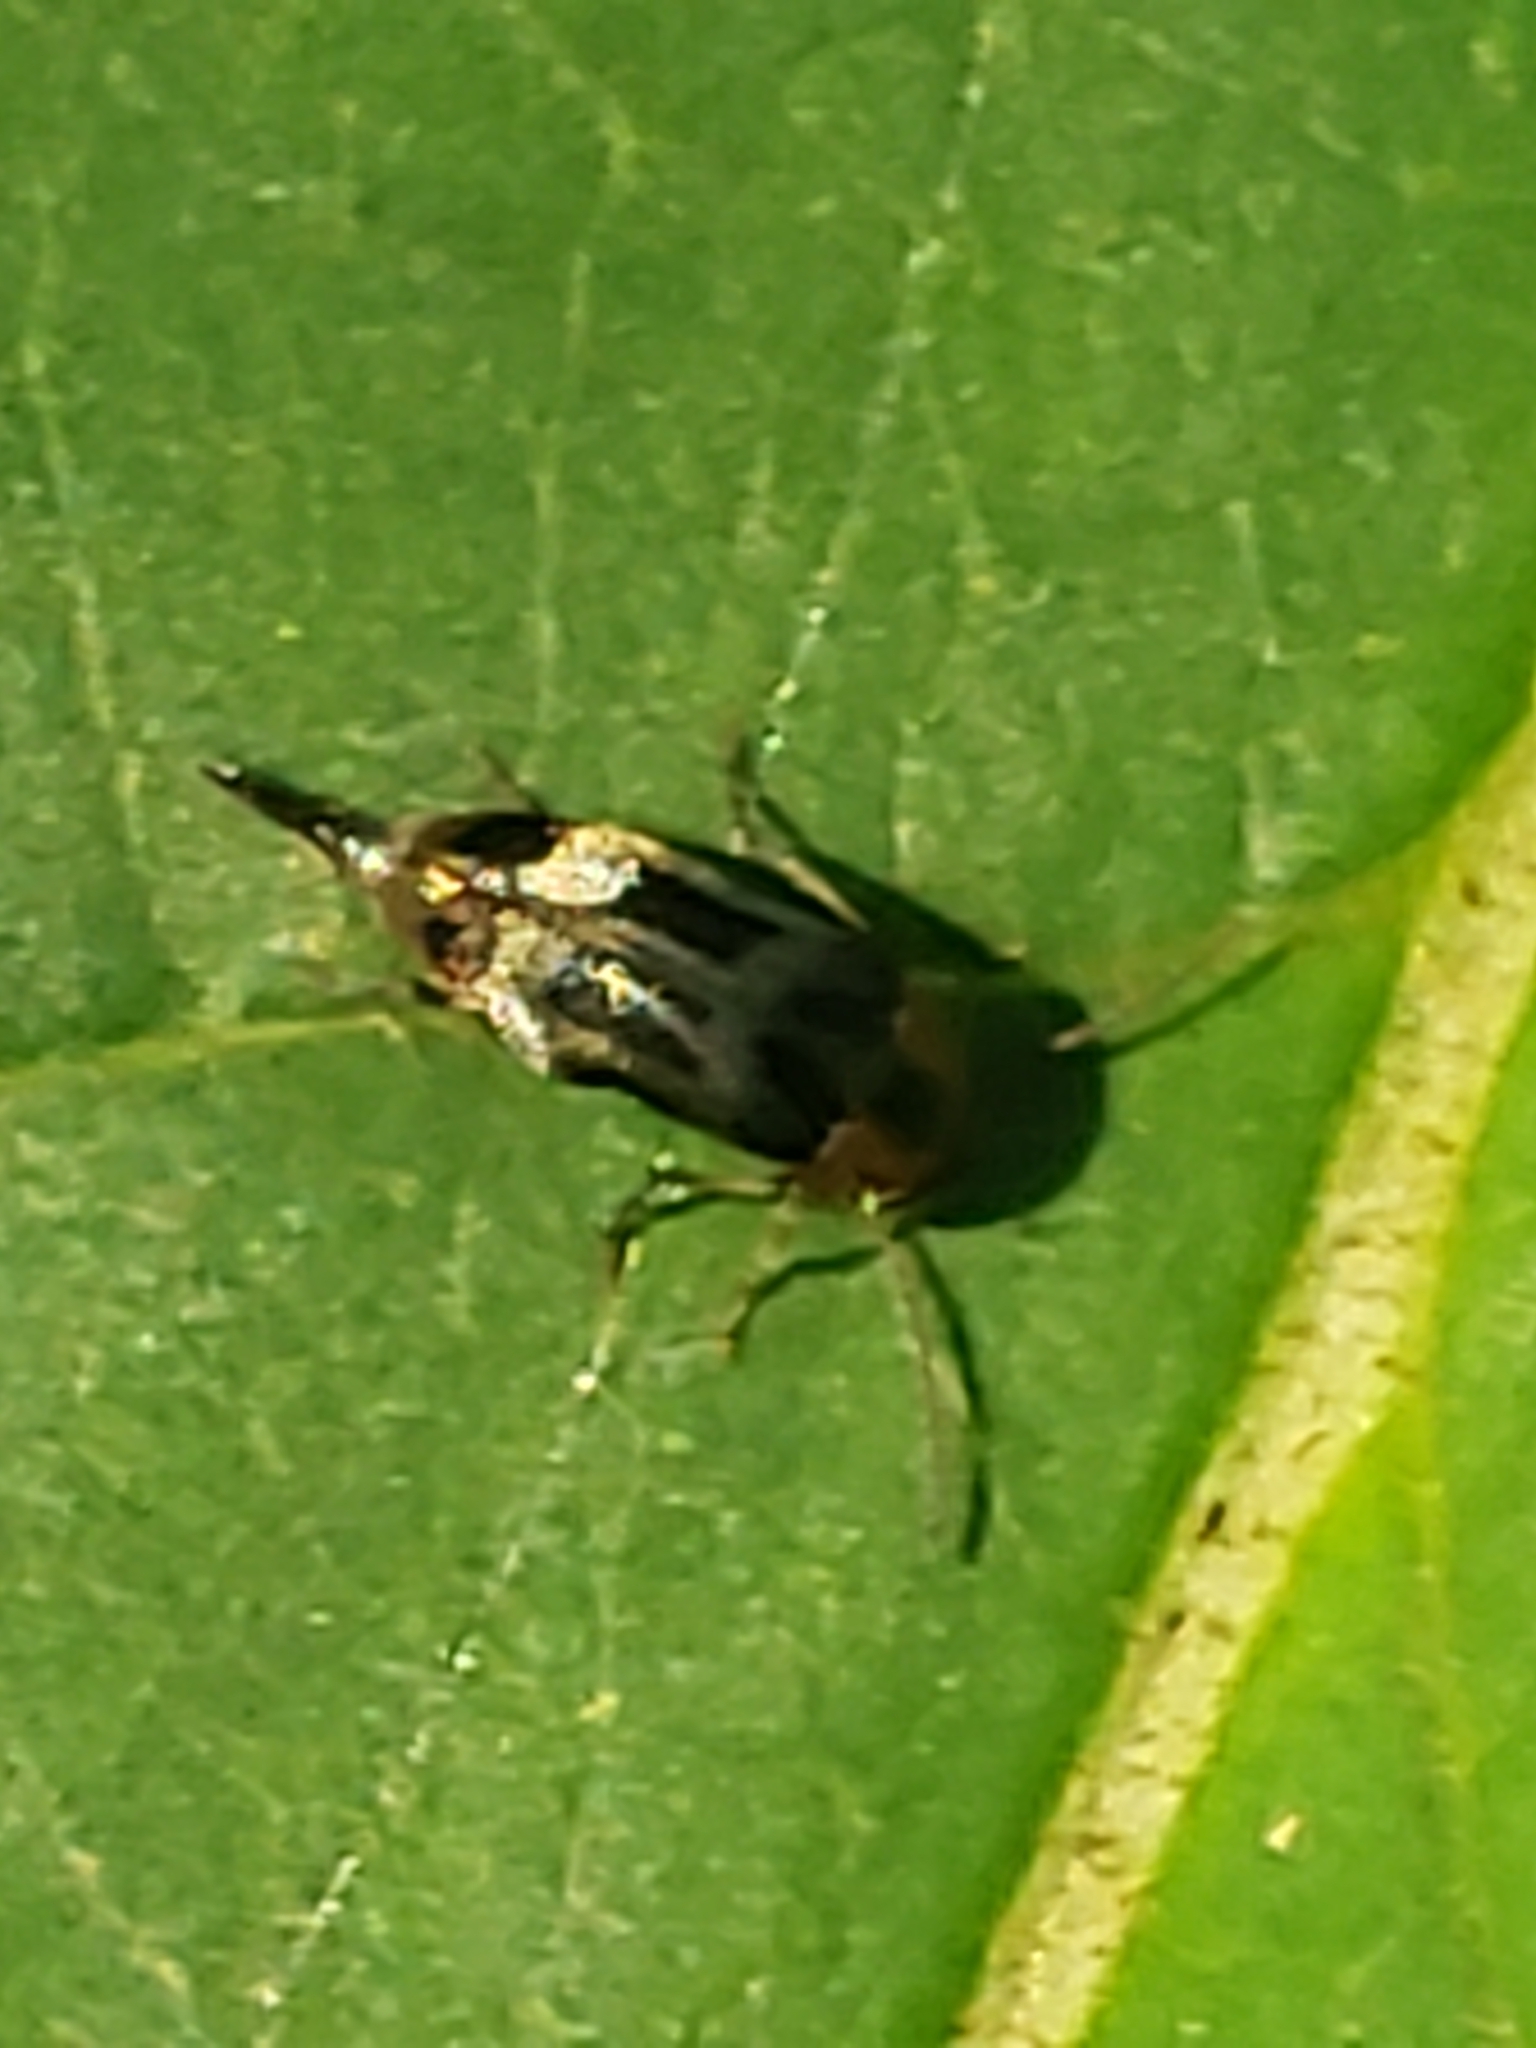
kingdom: Animalia
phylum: Arthropoda
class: Insecta
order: Coleoptera
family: Mordellidae
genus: Falsomordellistena
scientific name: Falsomordellistena hebraica
